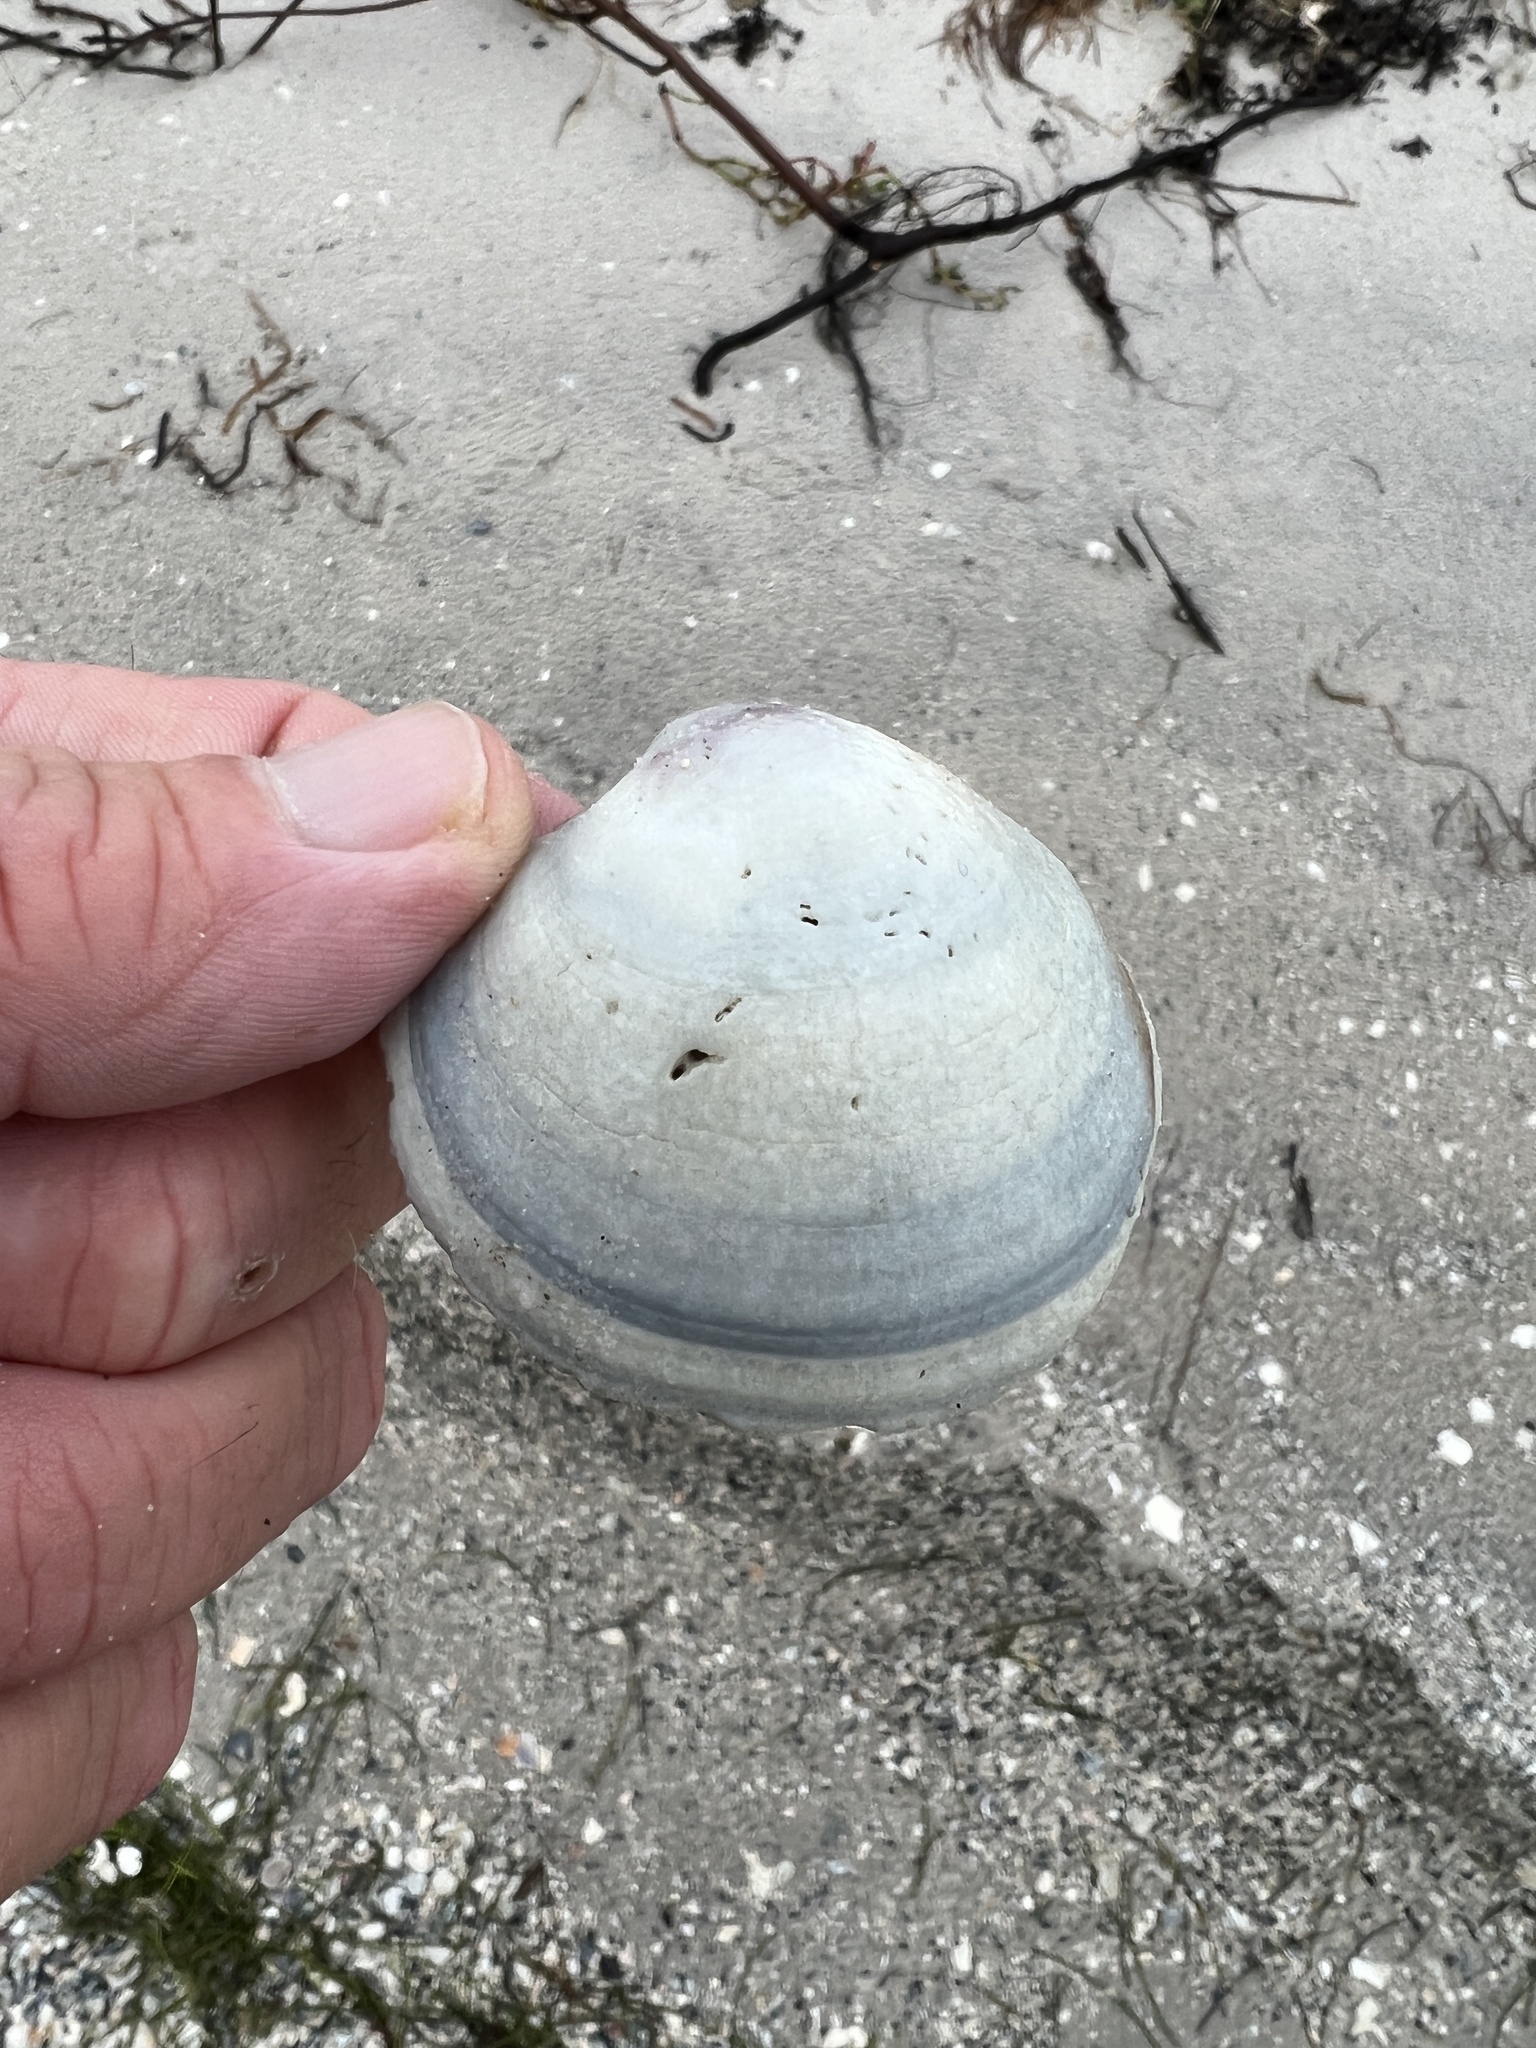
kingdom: Animalia
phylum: Mollusca
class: Bivalvia
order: Venerida
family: Veneridae
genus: Mercenaria
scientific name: Mercenaria campechiensis
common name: Südliche quahog-muschel
